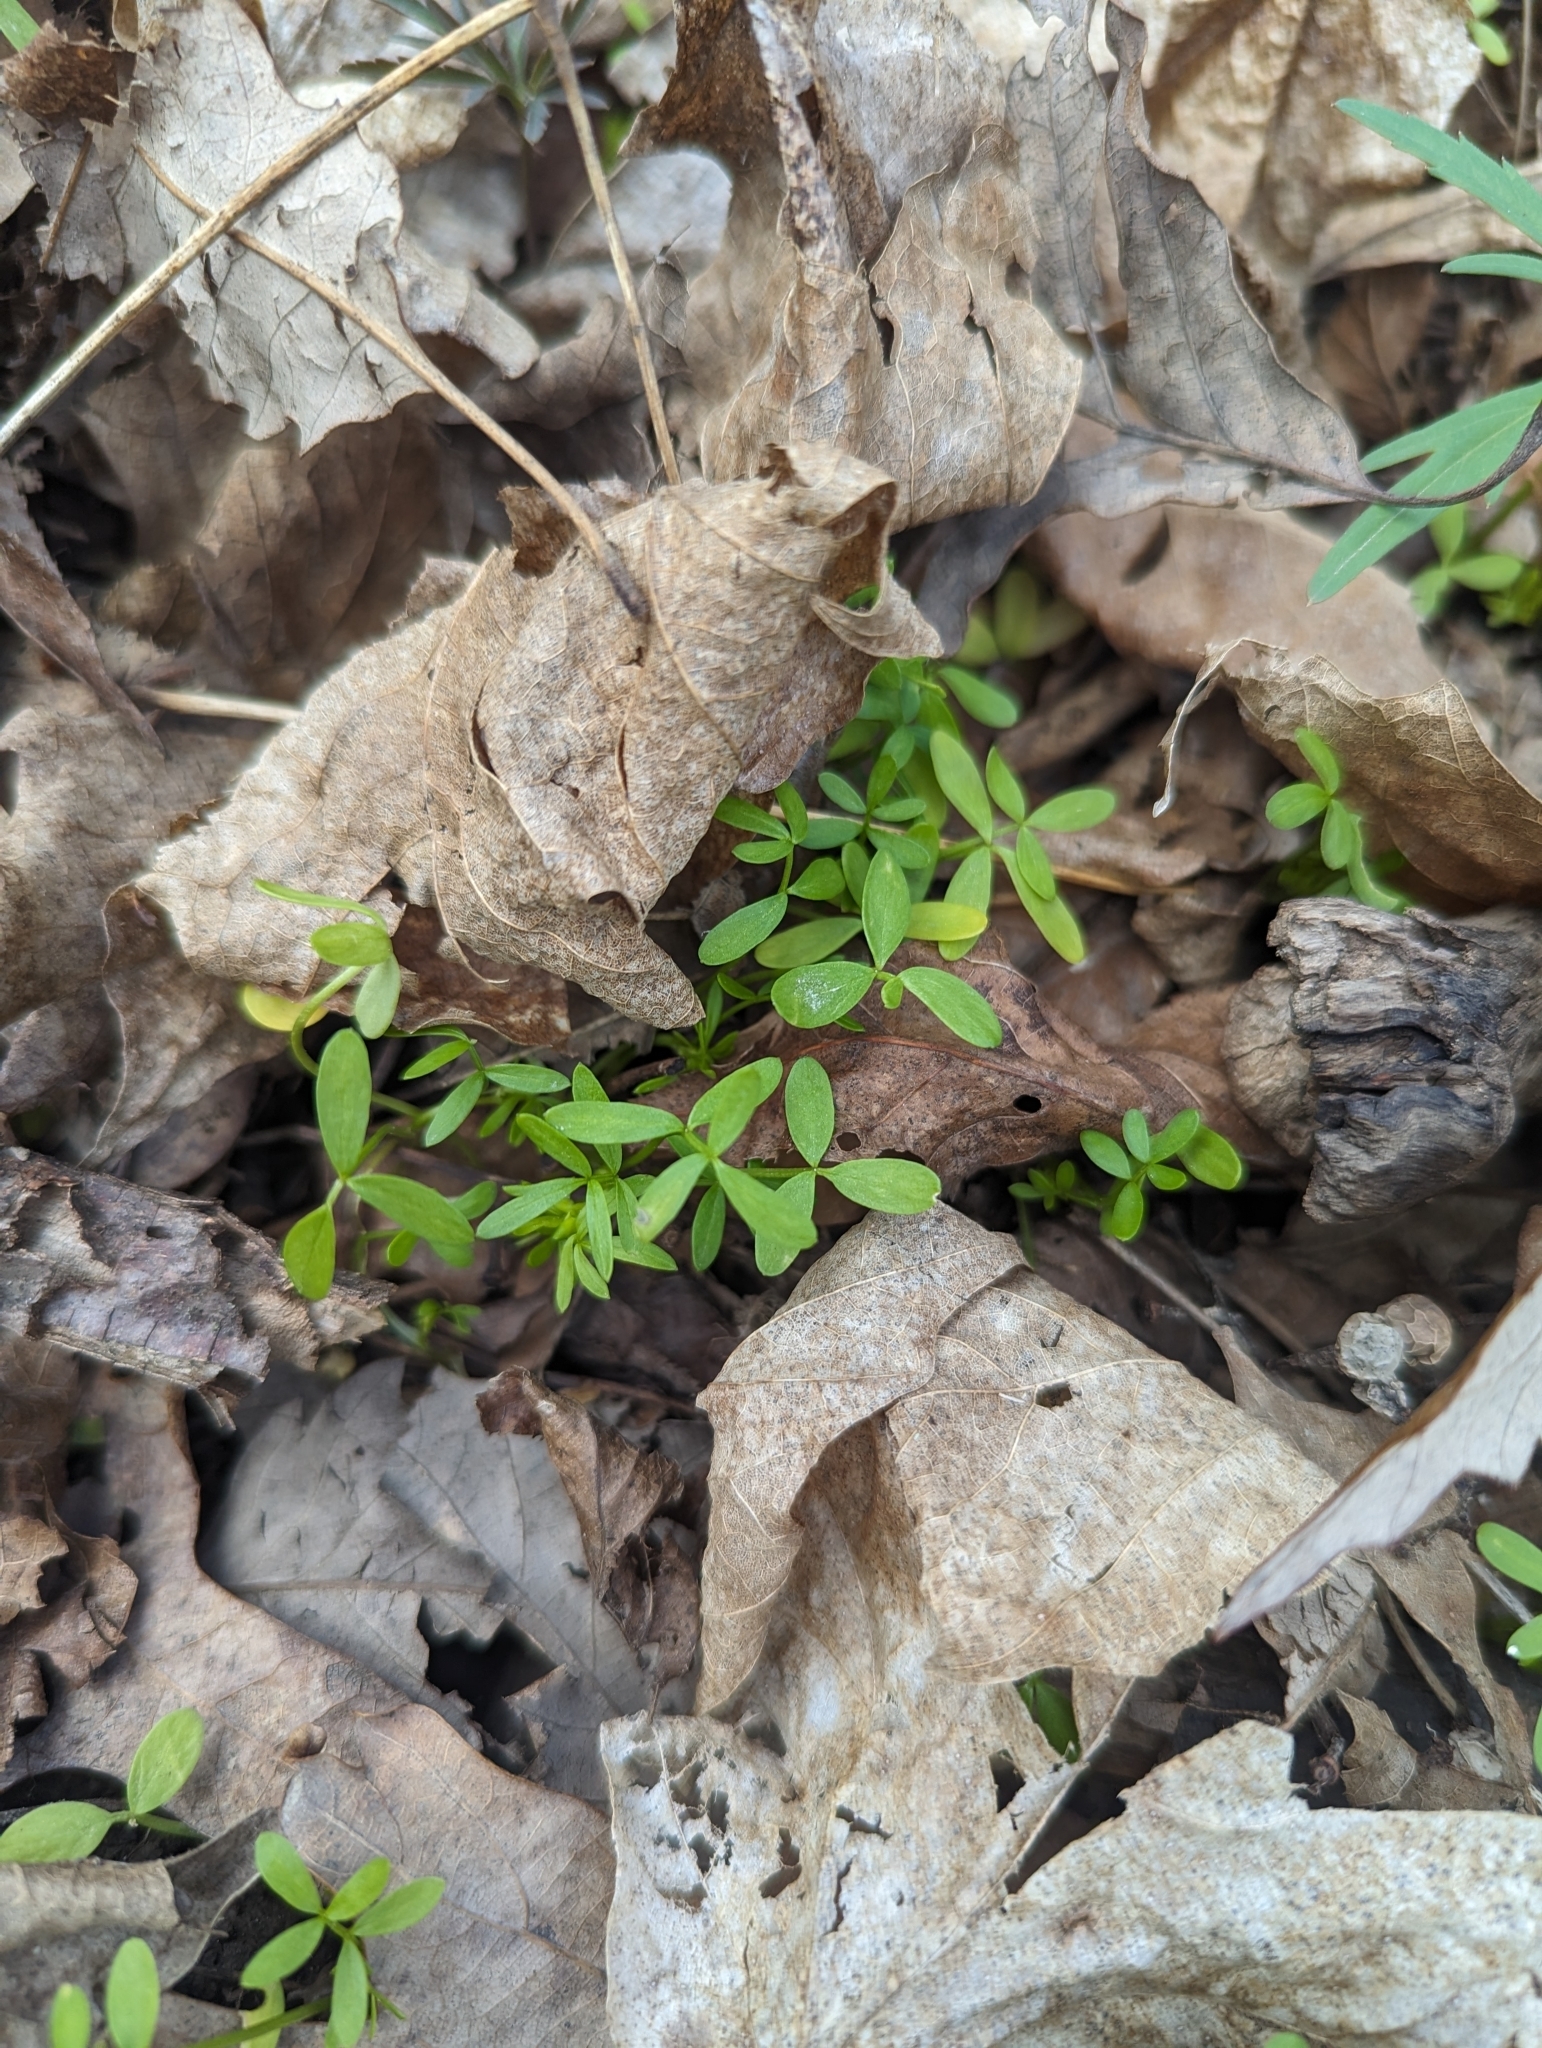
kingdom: Plantae
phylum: Tracheophyta
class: Magnoliopsida
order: Brassicales
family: Limnanthaceae
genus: Floerkea
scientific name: Floerkea proserpinacoides
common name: False mermaid
